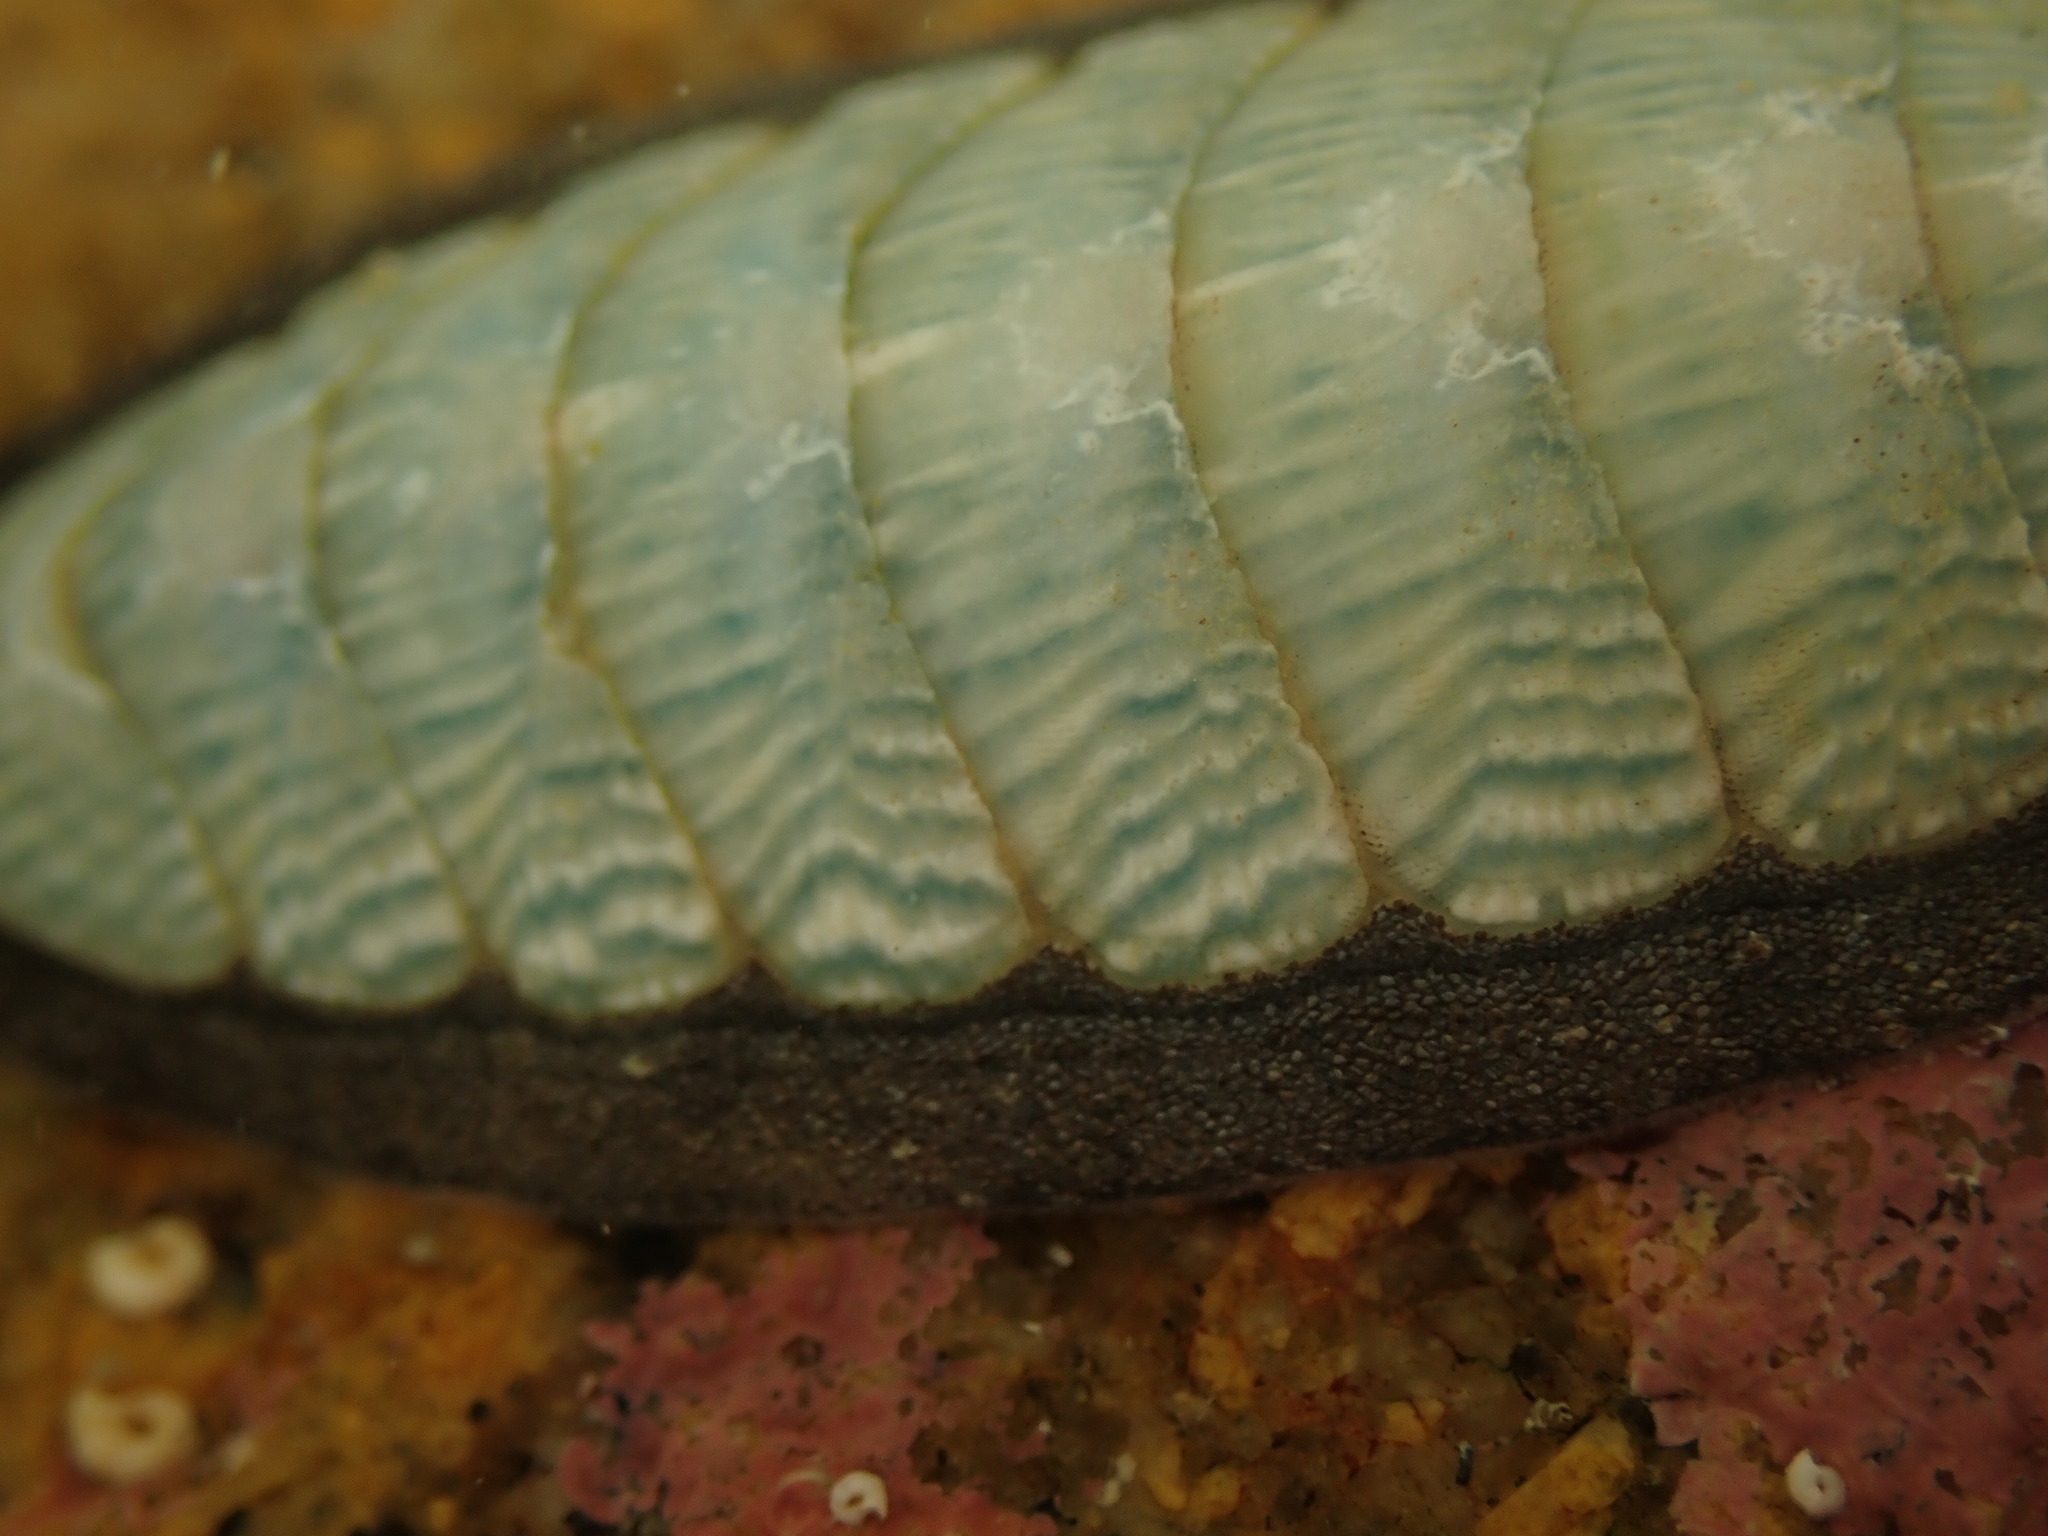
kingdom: Animalia
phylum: Mollusca
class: Polyplacophora
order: Chitonida
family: Ischnochitonidae
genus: Ischnochiton
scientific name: Ischnochiton maorianus
